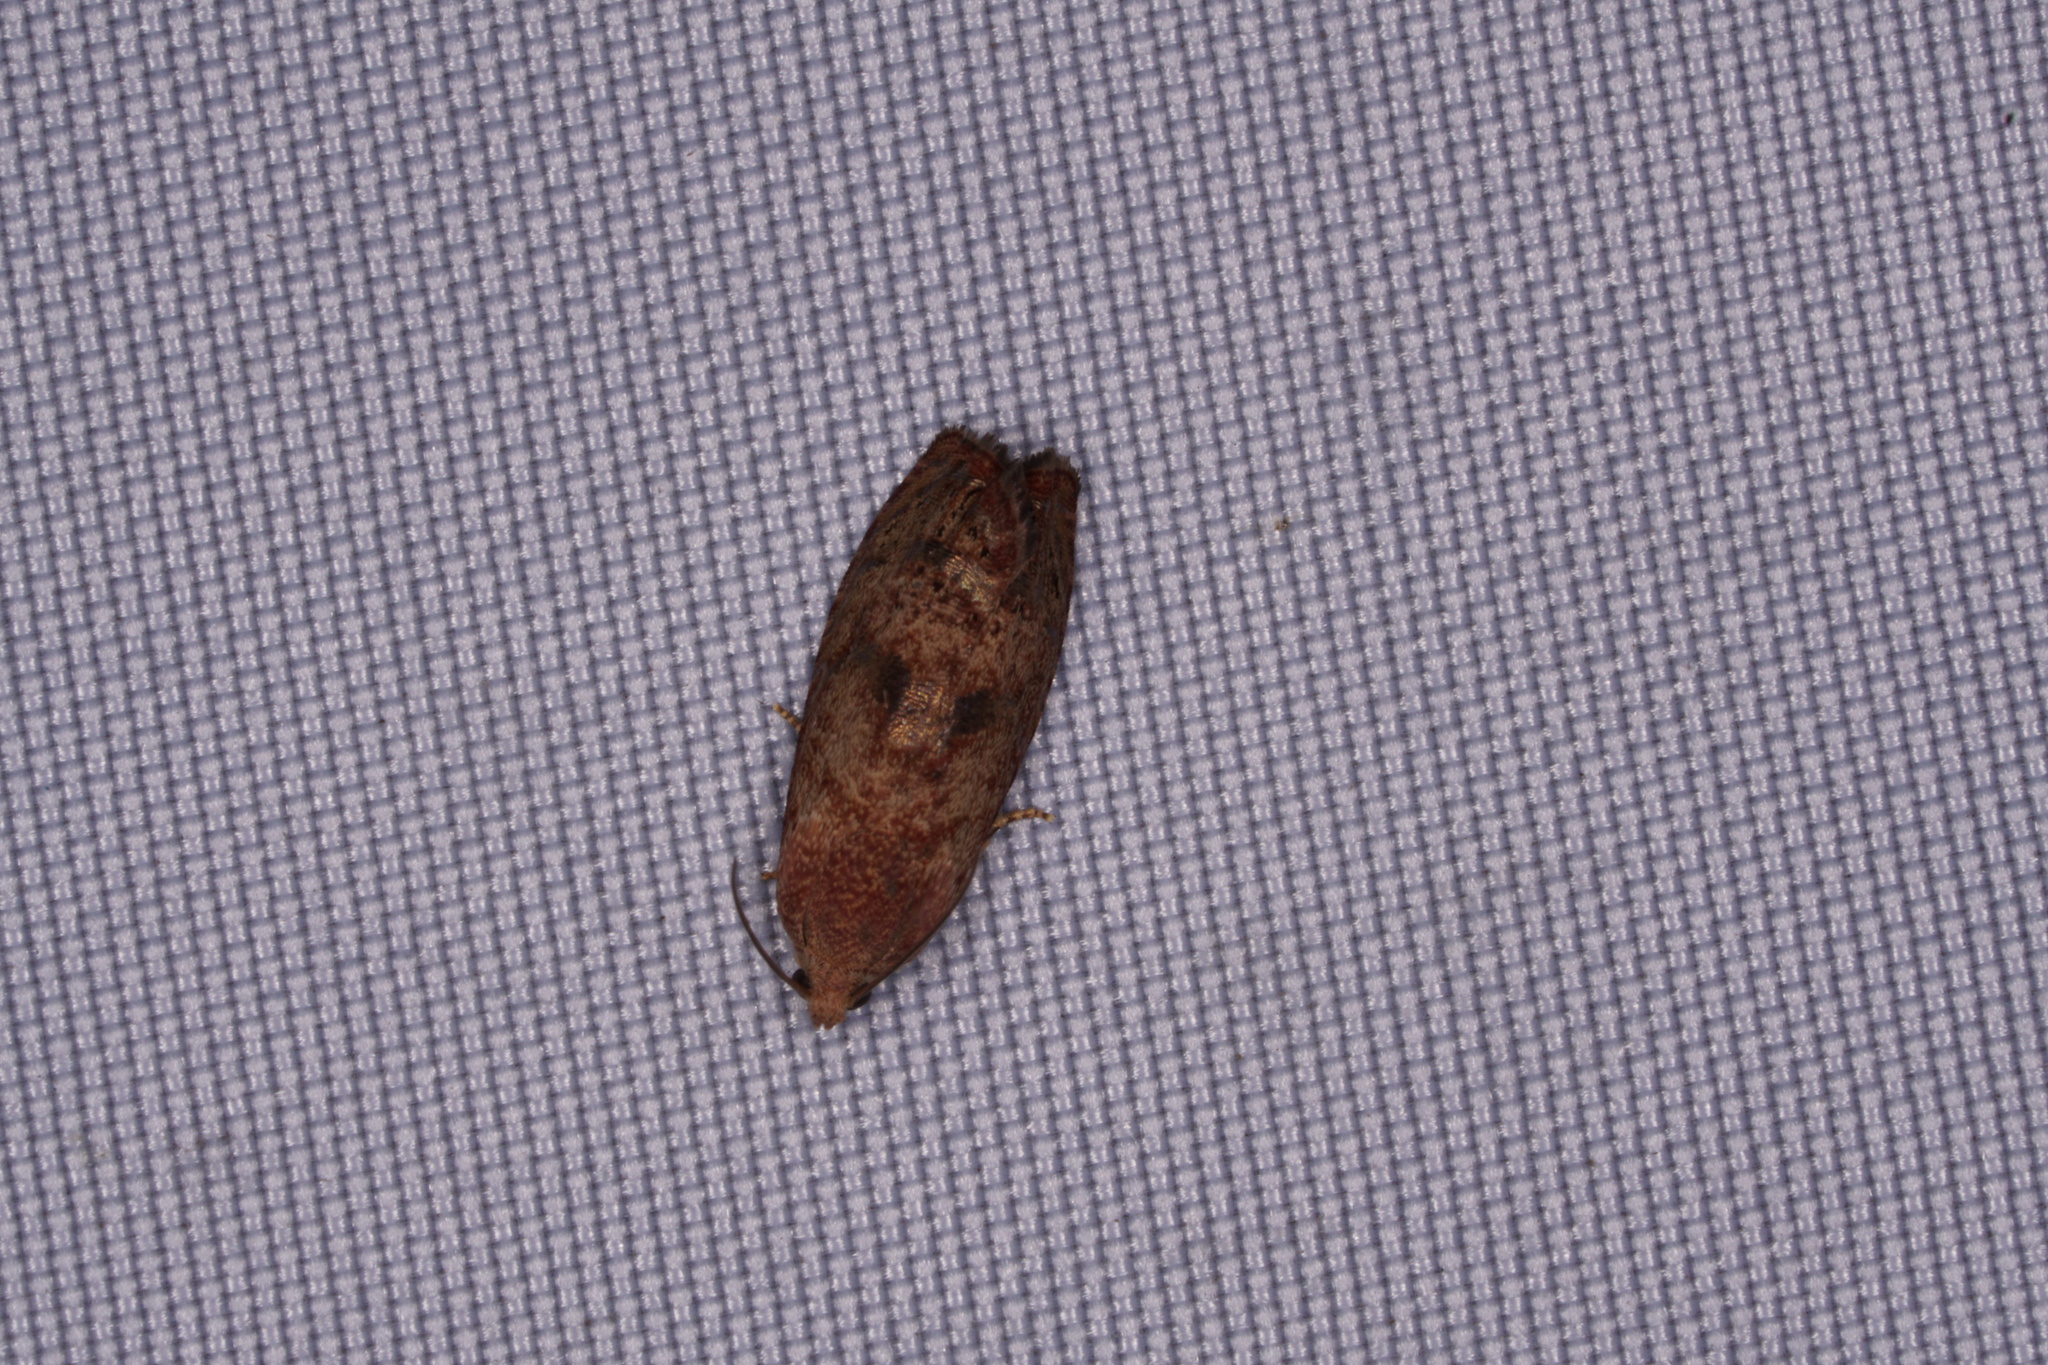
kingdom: Animalia
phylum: Arthropoda
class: Insecta
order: Lepidoptera
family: Tortricidae
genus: Cydia
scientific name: Cydia latiferreana
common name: Filbertworm moth
